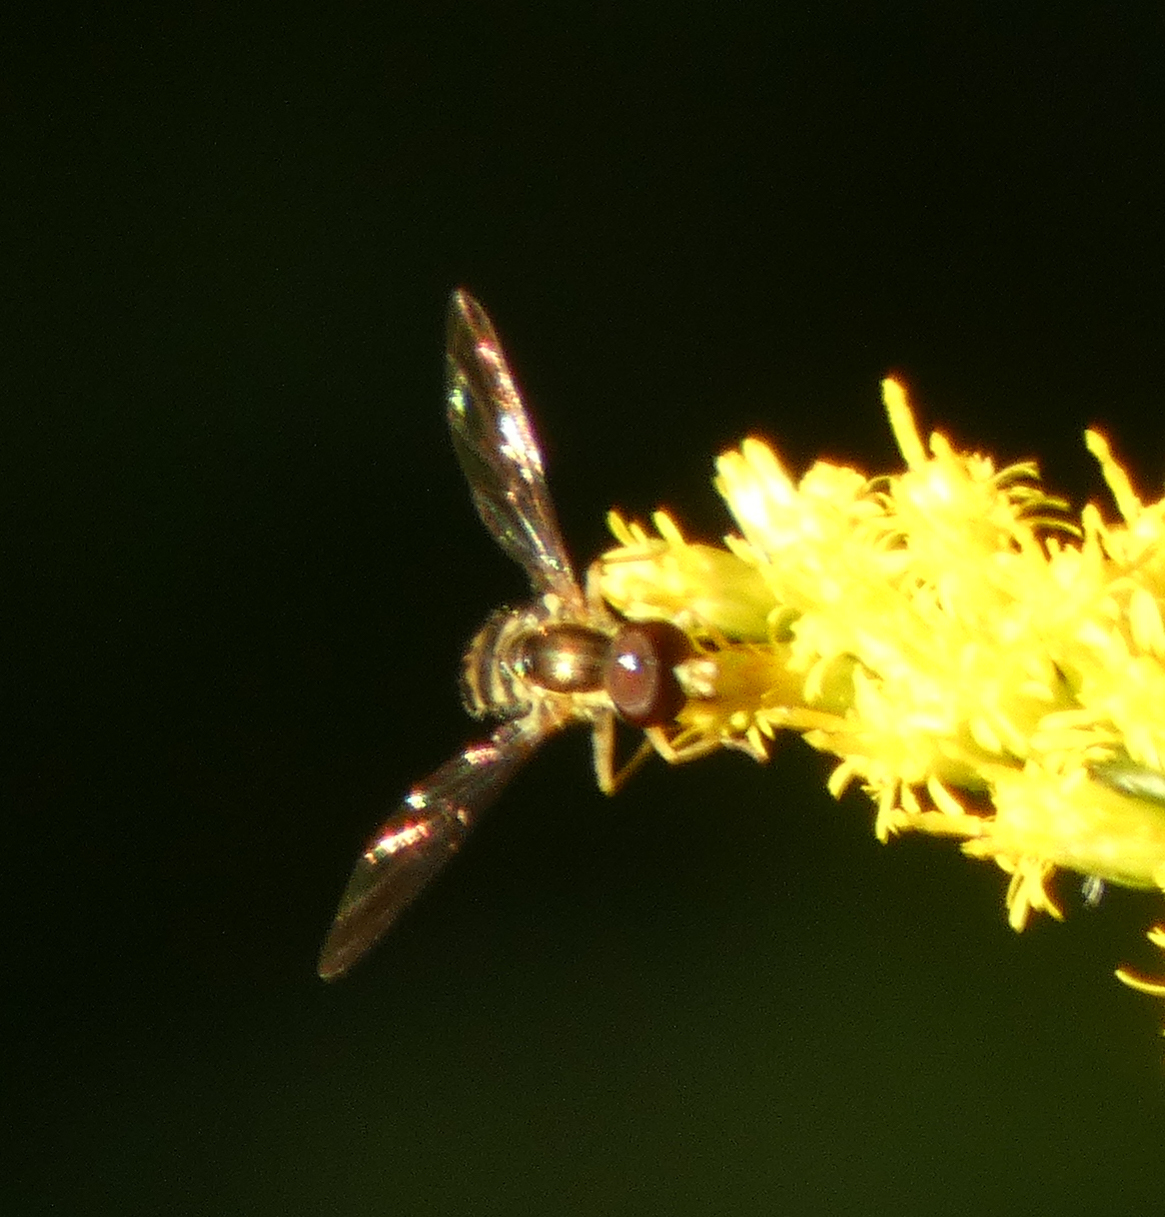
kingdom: Animalia
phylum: Arthropoda
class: Insecta
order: Diptera
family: Syrphidae
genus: Toxomerus
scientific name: Toxomerus geminatus
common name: Eastern calligrapher
